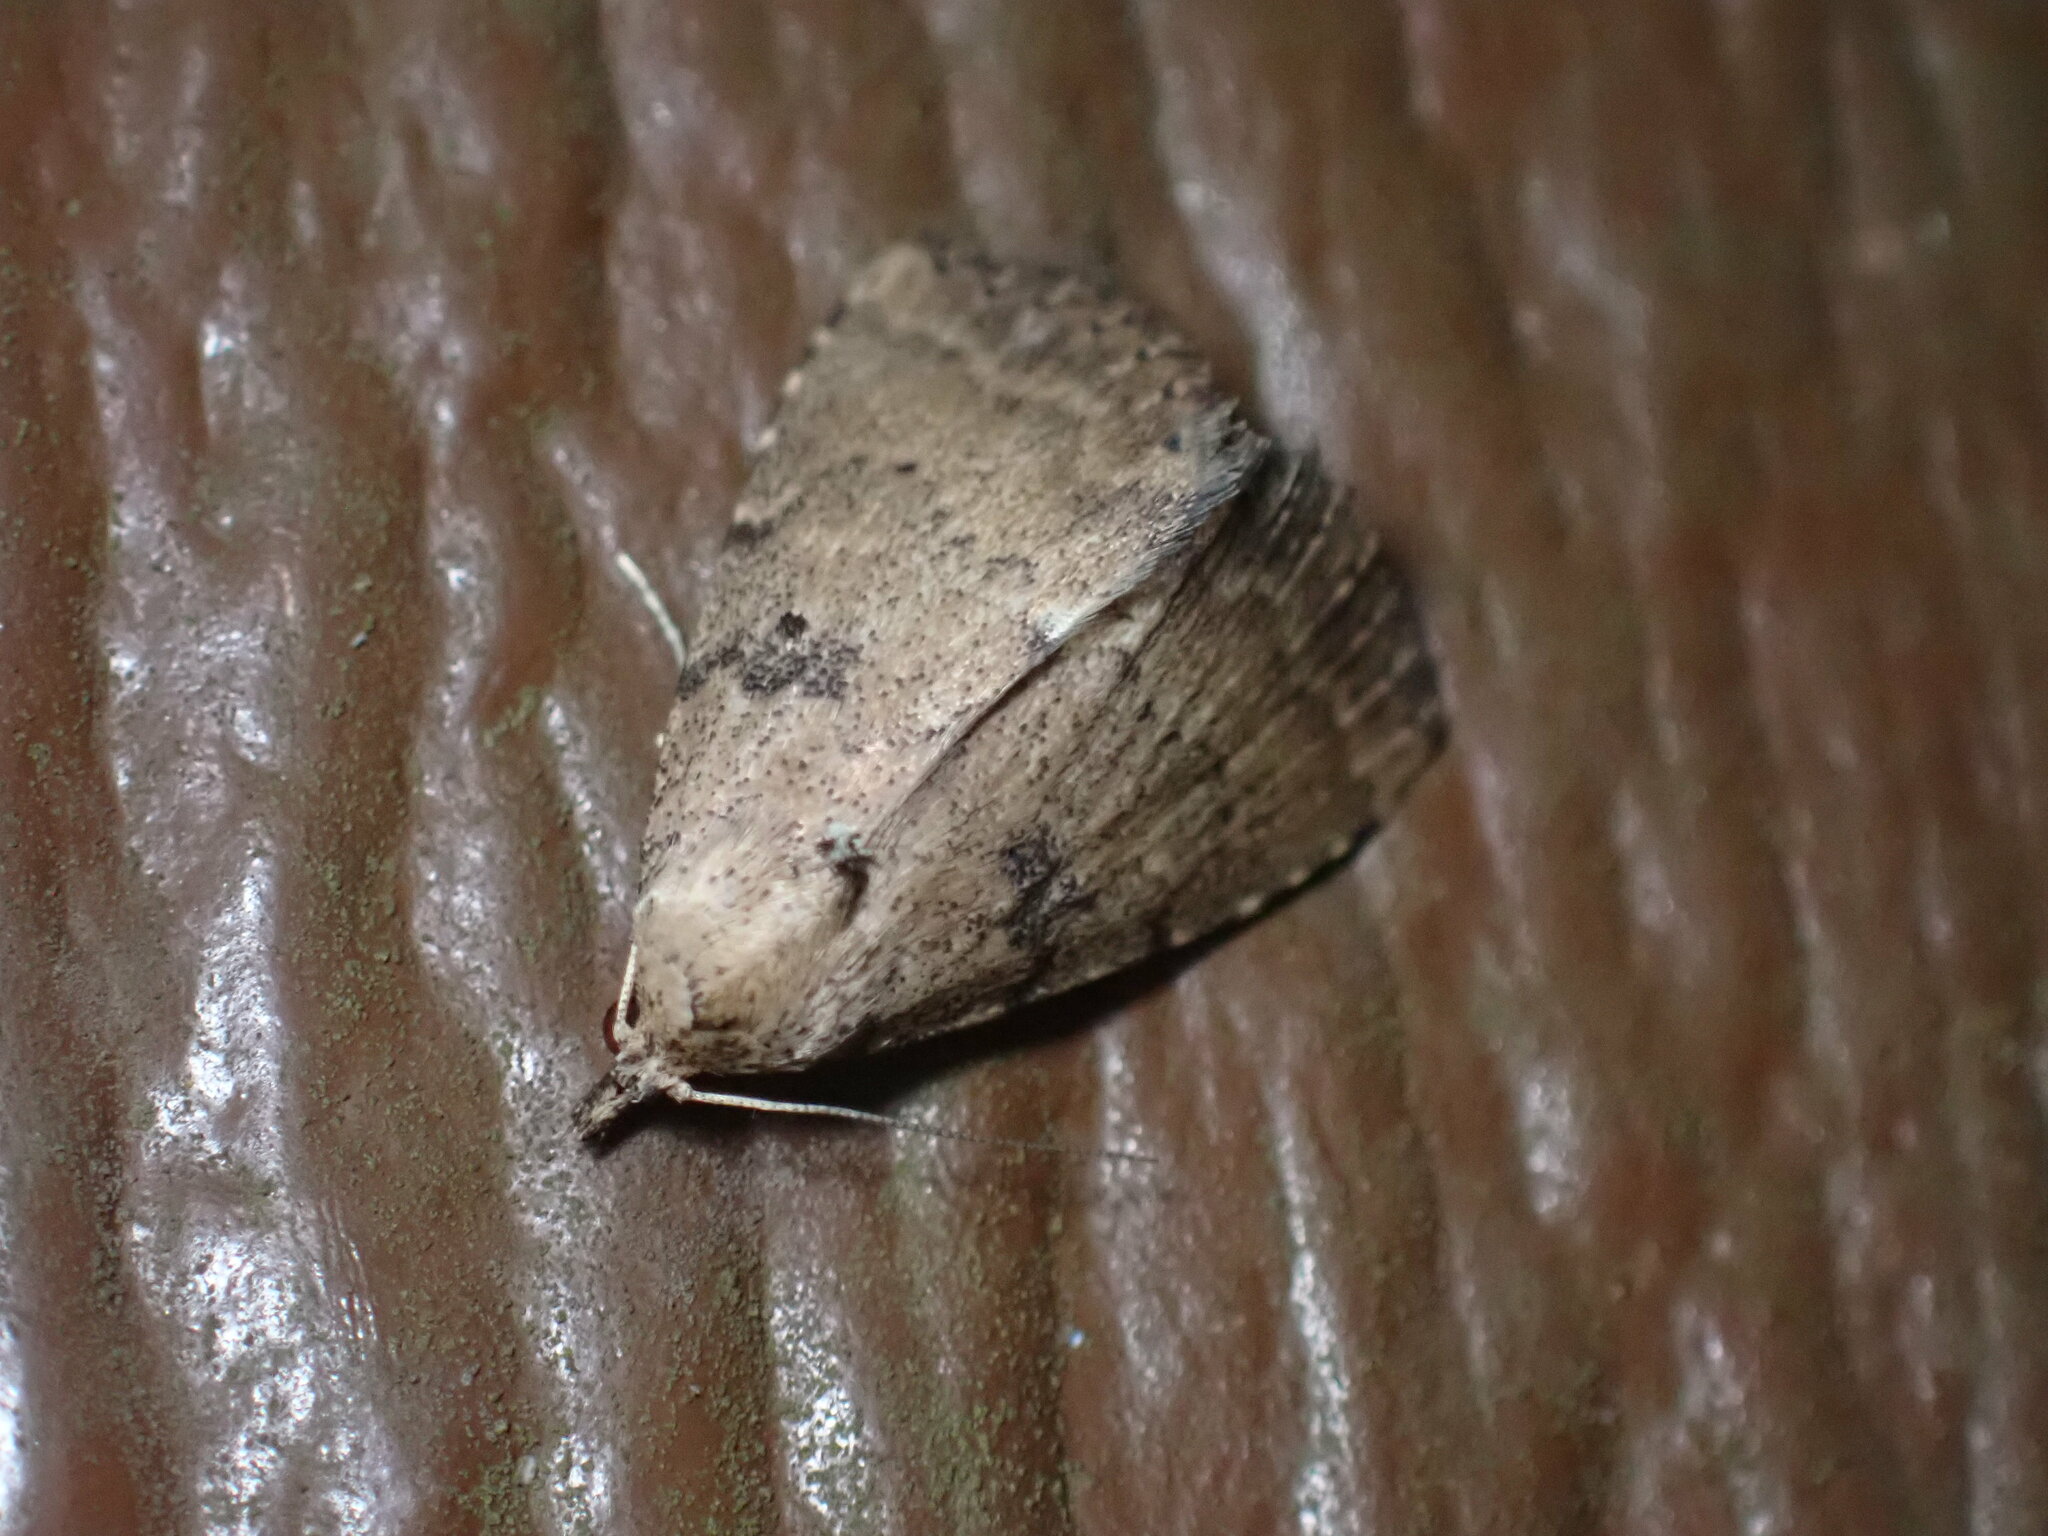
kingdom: Animalia
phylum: Arthropoda
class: Insecta
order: Lepidoptera
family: Erebidae
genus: Arugisa
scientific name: Arugisa lutea
